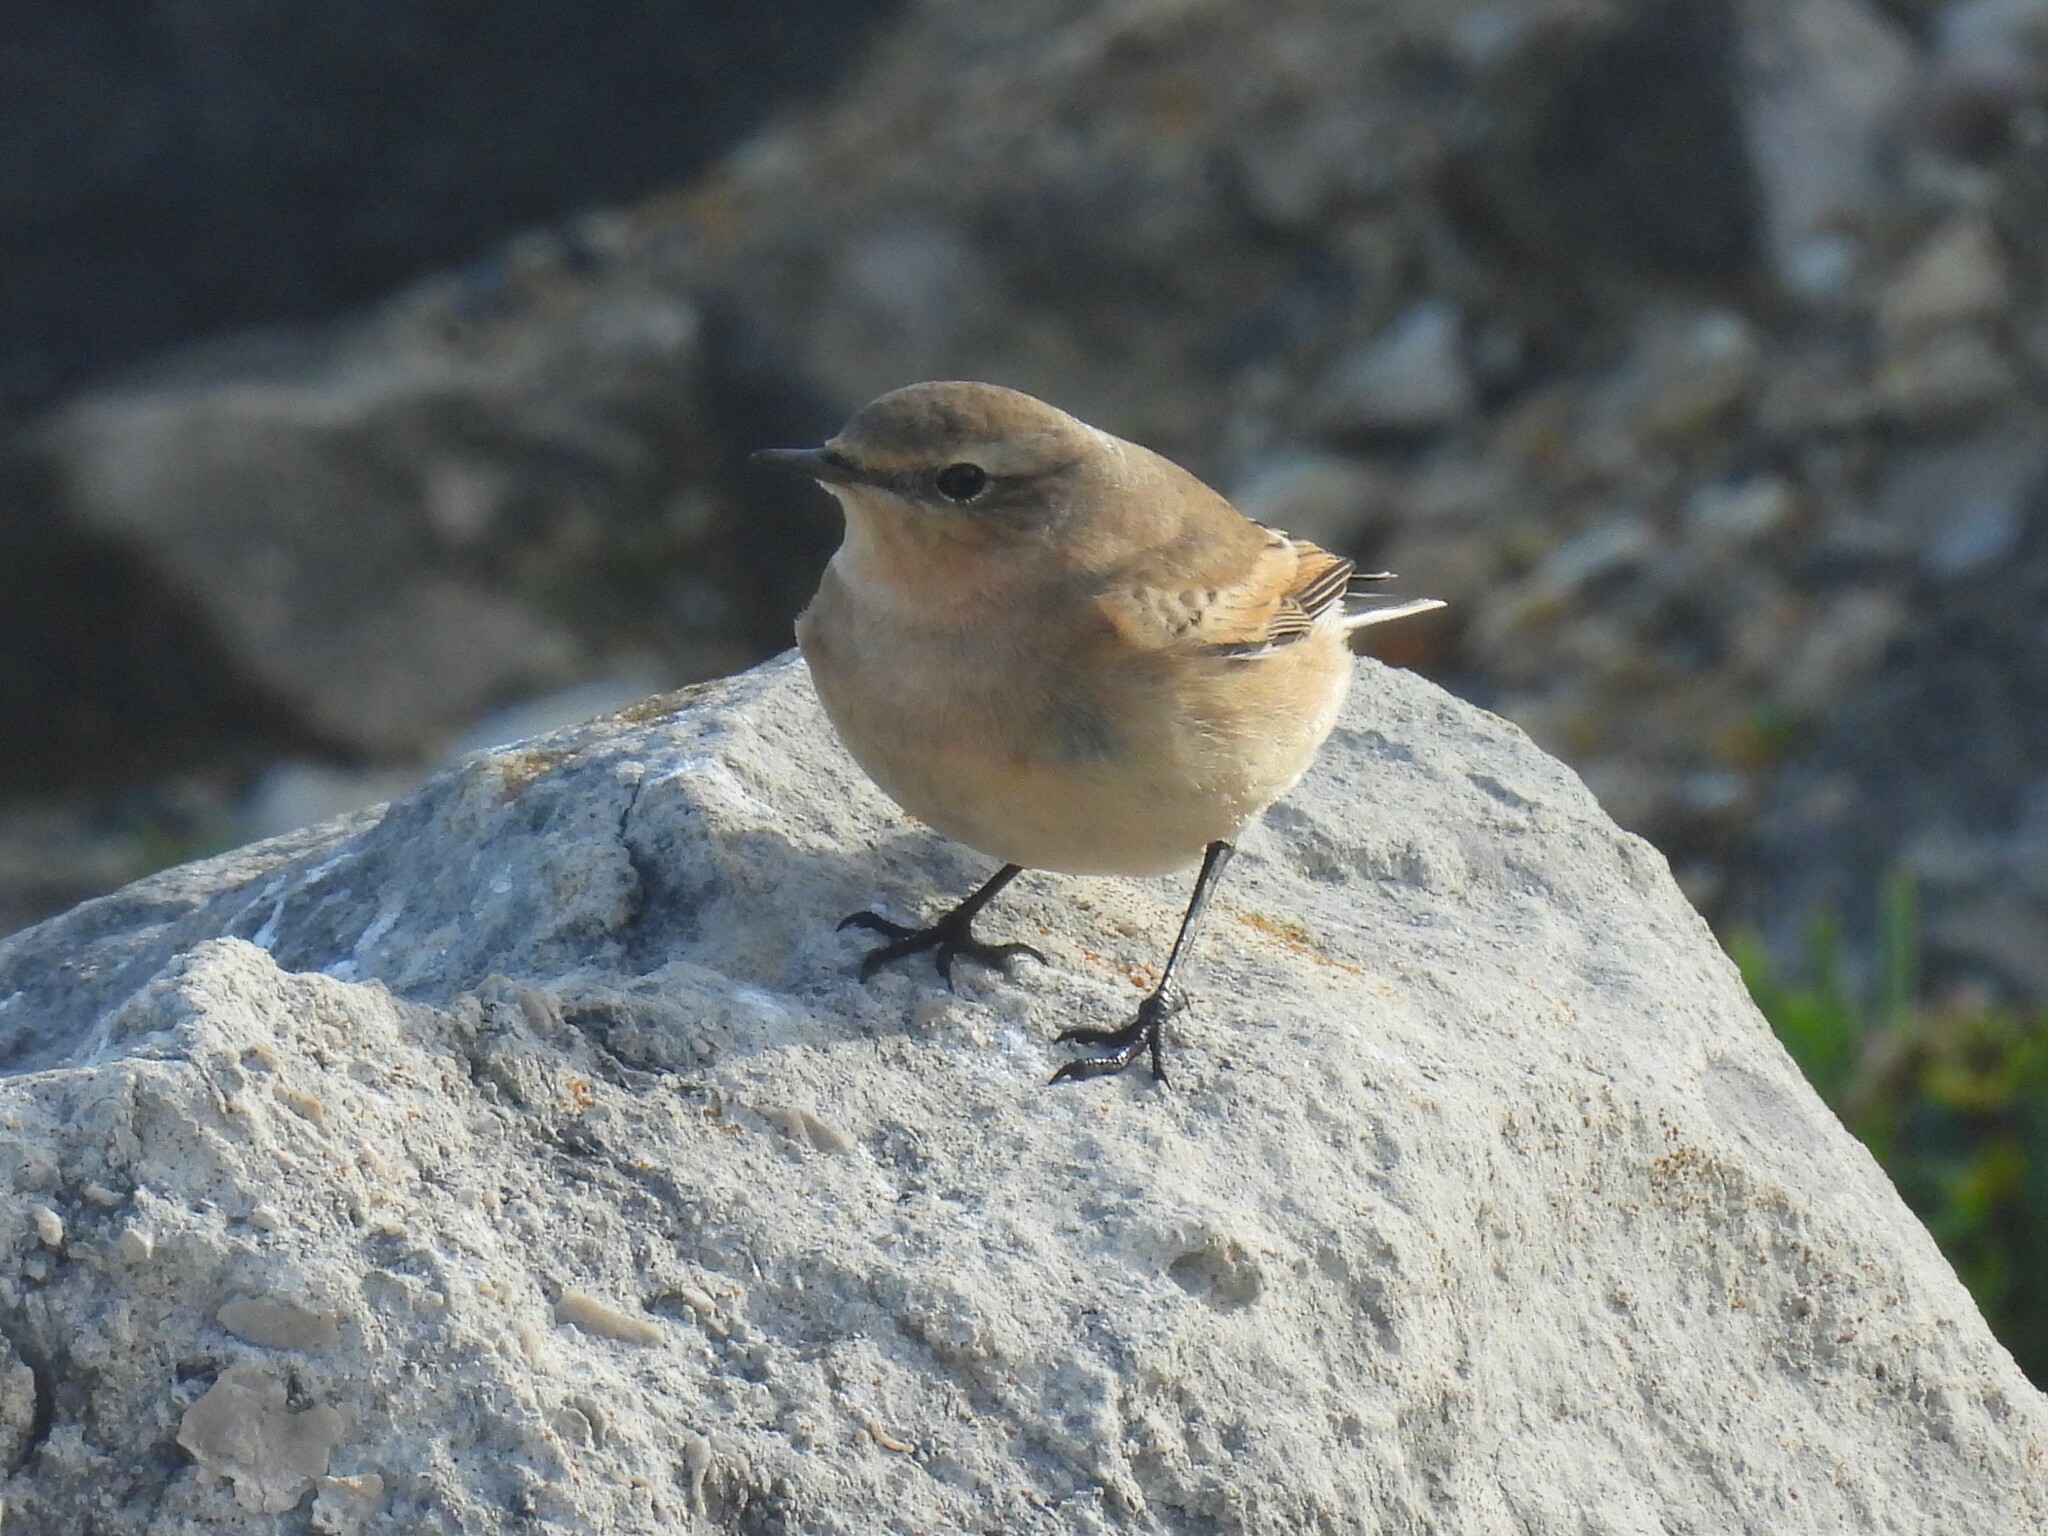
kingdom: Animalia
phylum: Chordata
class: Aves
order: Passeriformes
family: Muscicapidae
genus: Oenanthe
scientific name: Oenanthe oenanthe
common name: Northern wheatear
